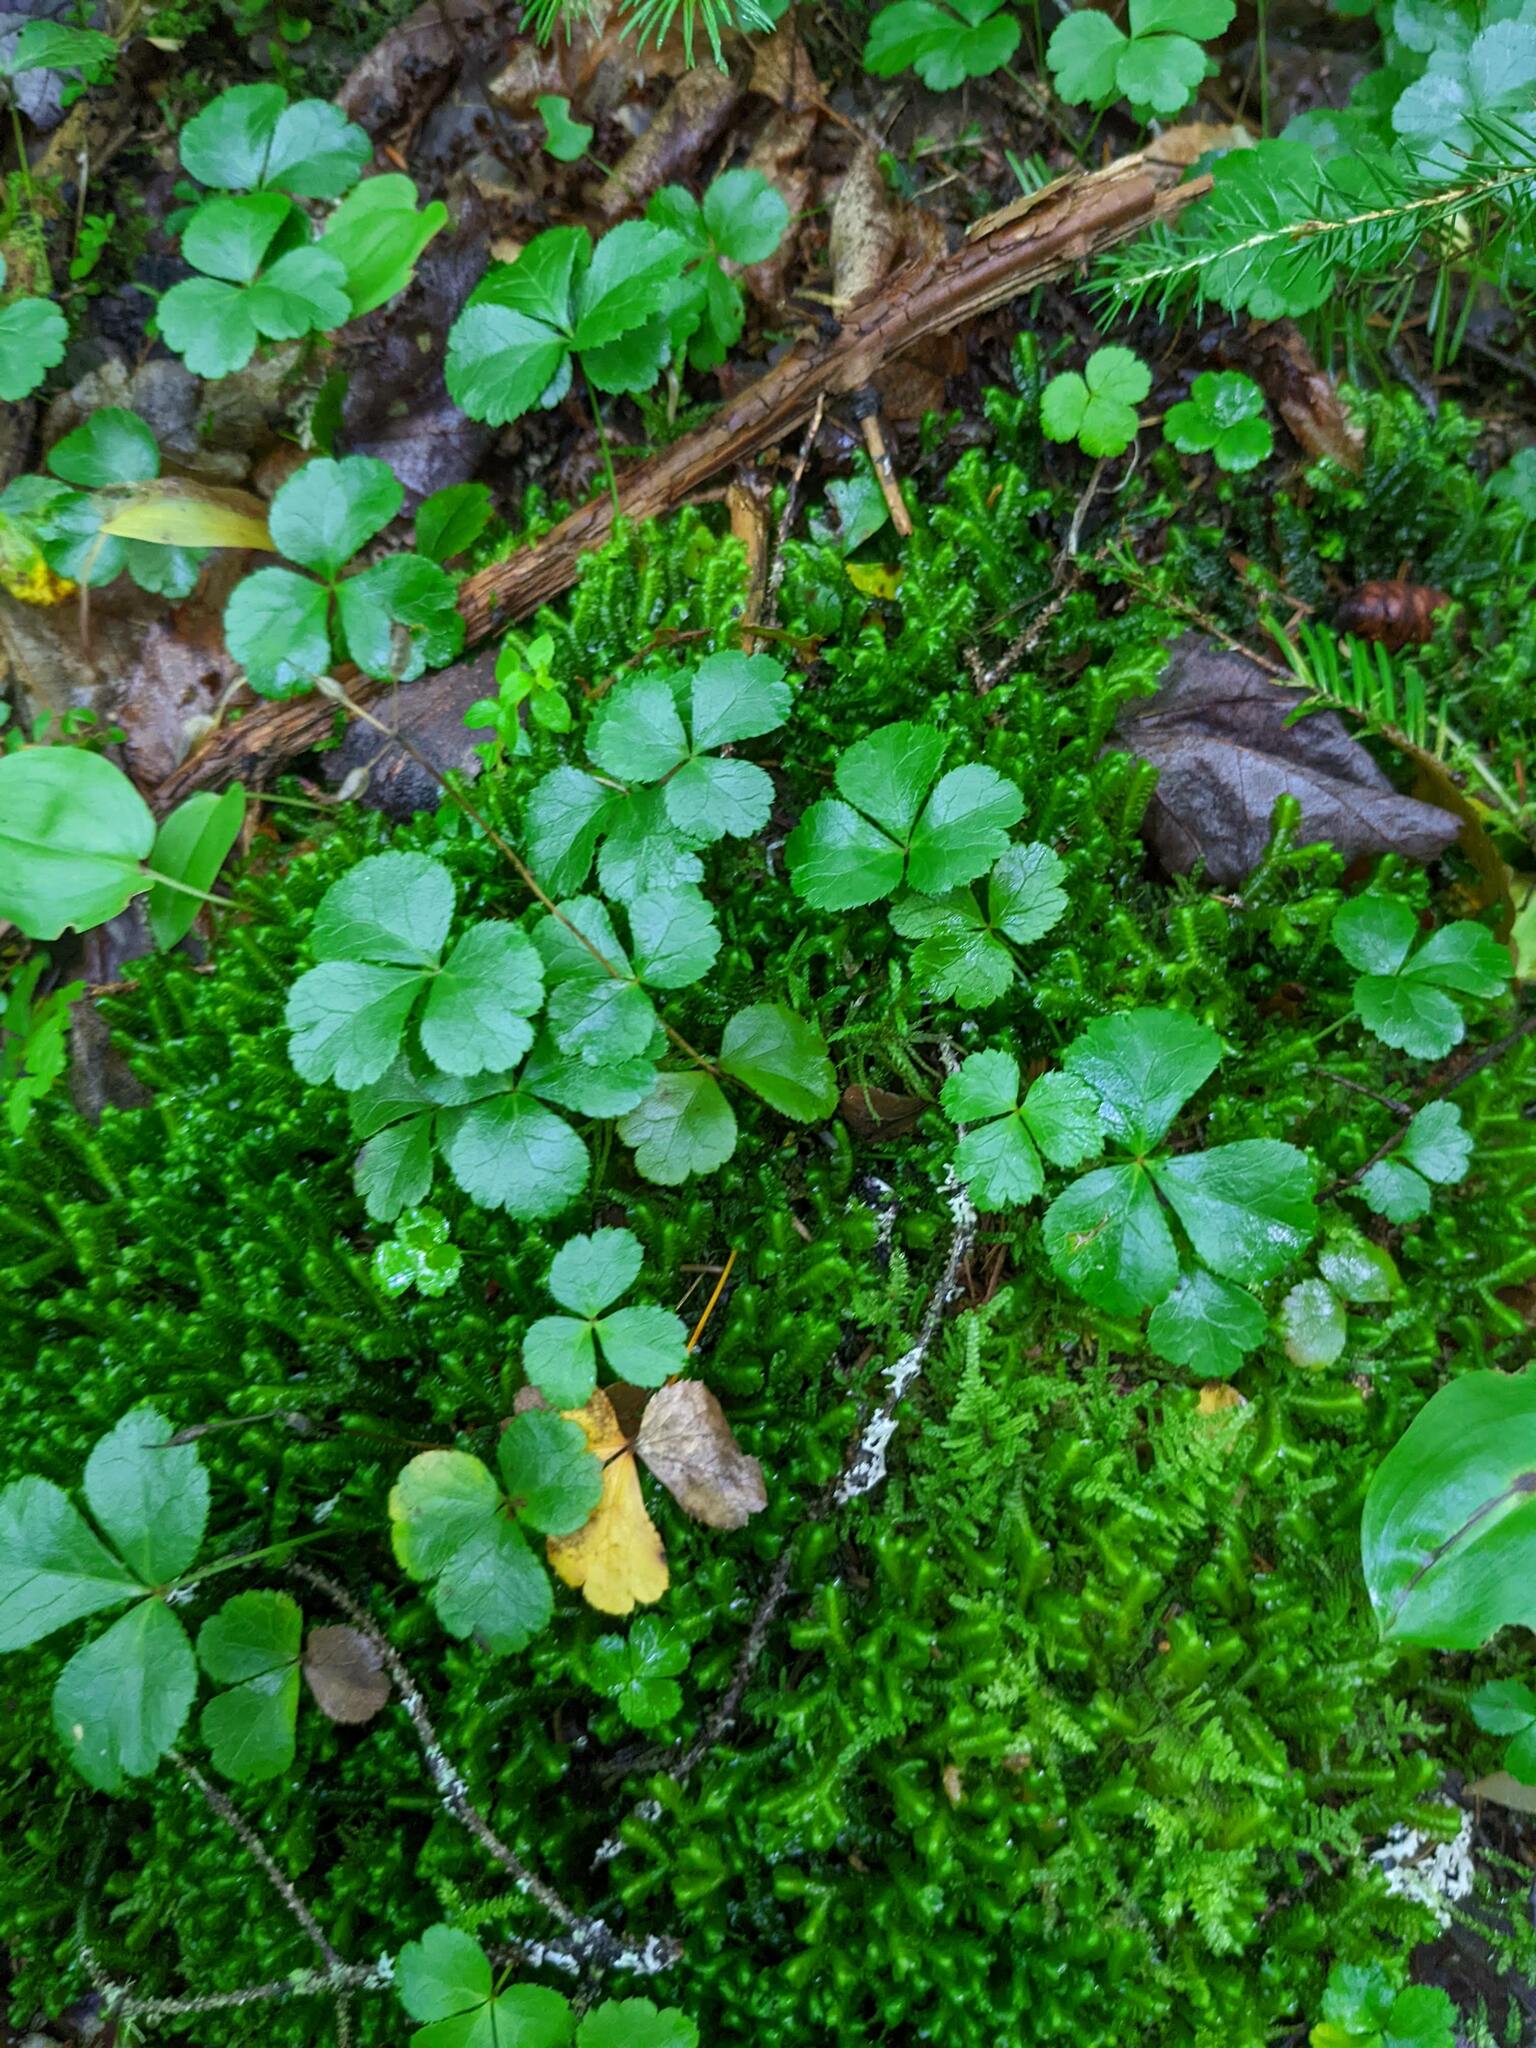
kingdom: Plantae
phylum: Tracheophyta
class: Magnoliopsida
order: Ranunculales
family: Ranunculaceae
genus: Coptis
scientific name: Coptis trifolia
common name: Canker-root
